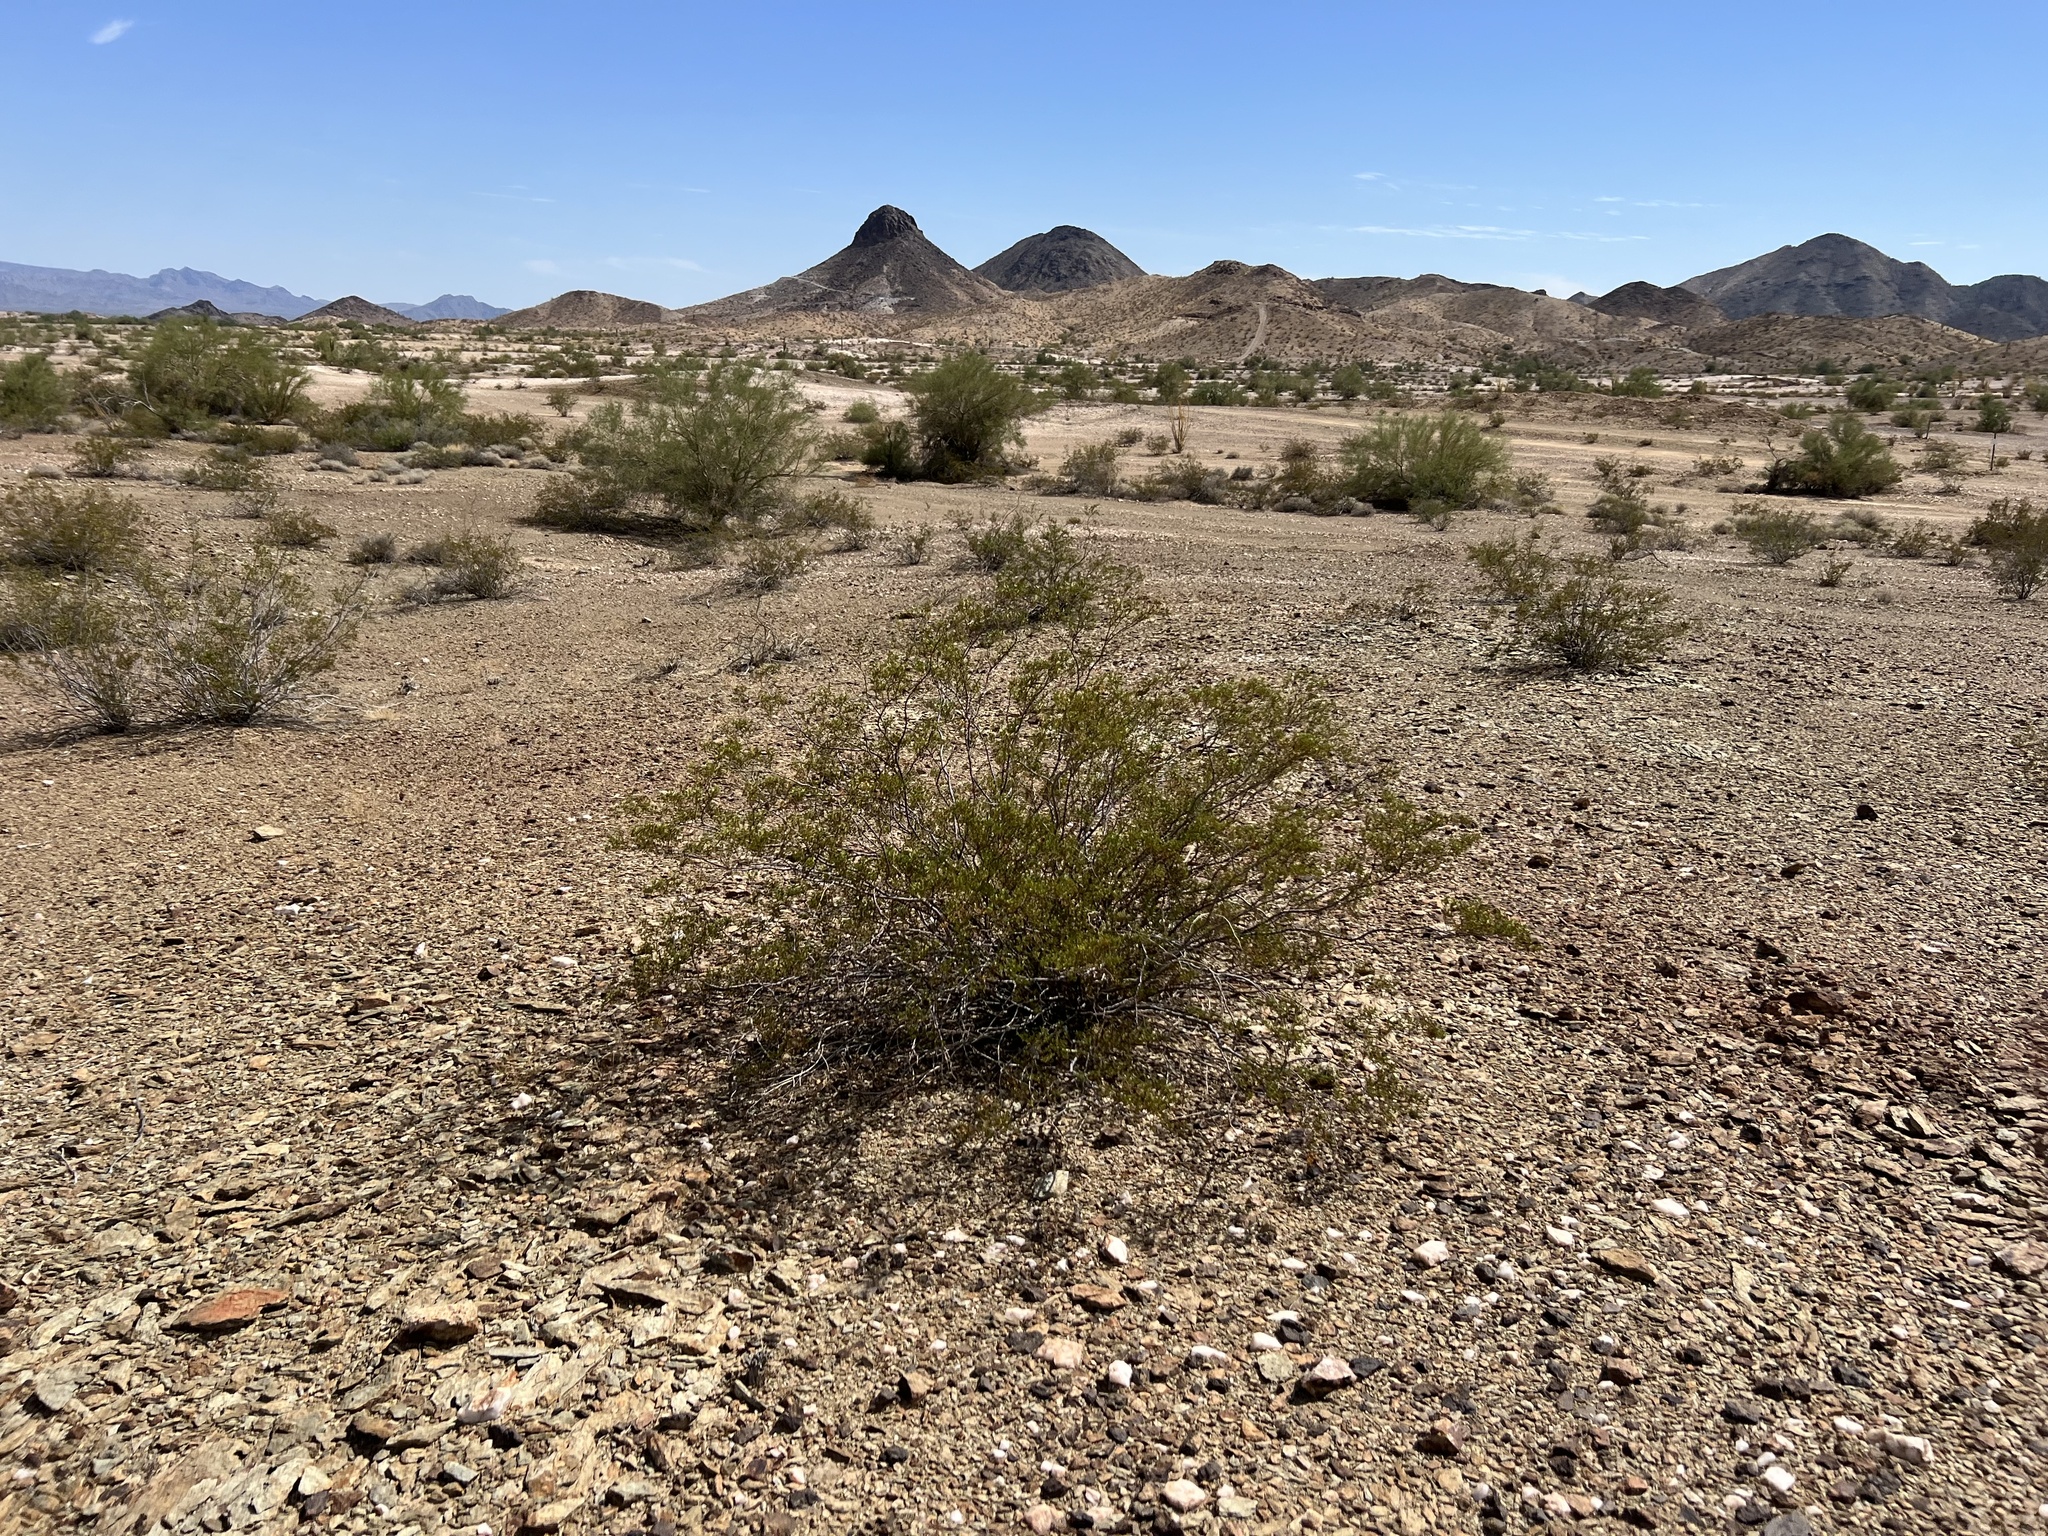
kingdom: Plantae
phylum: Tracheophyta
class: Magnoliopsida
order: Zygophyllales
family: Zygophyllaceae
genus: Larrea
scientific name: Larrea tridentata
